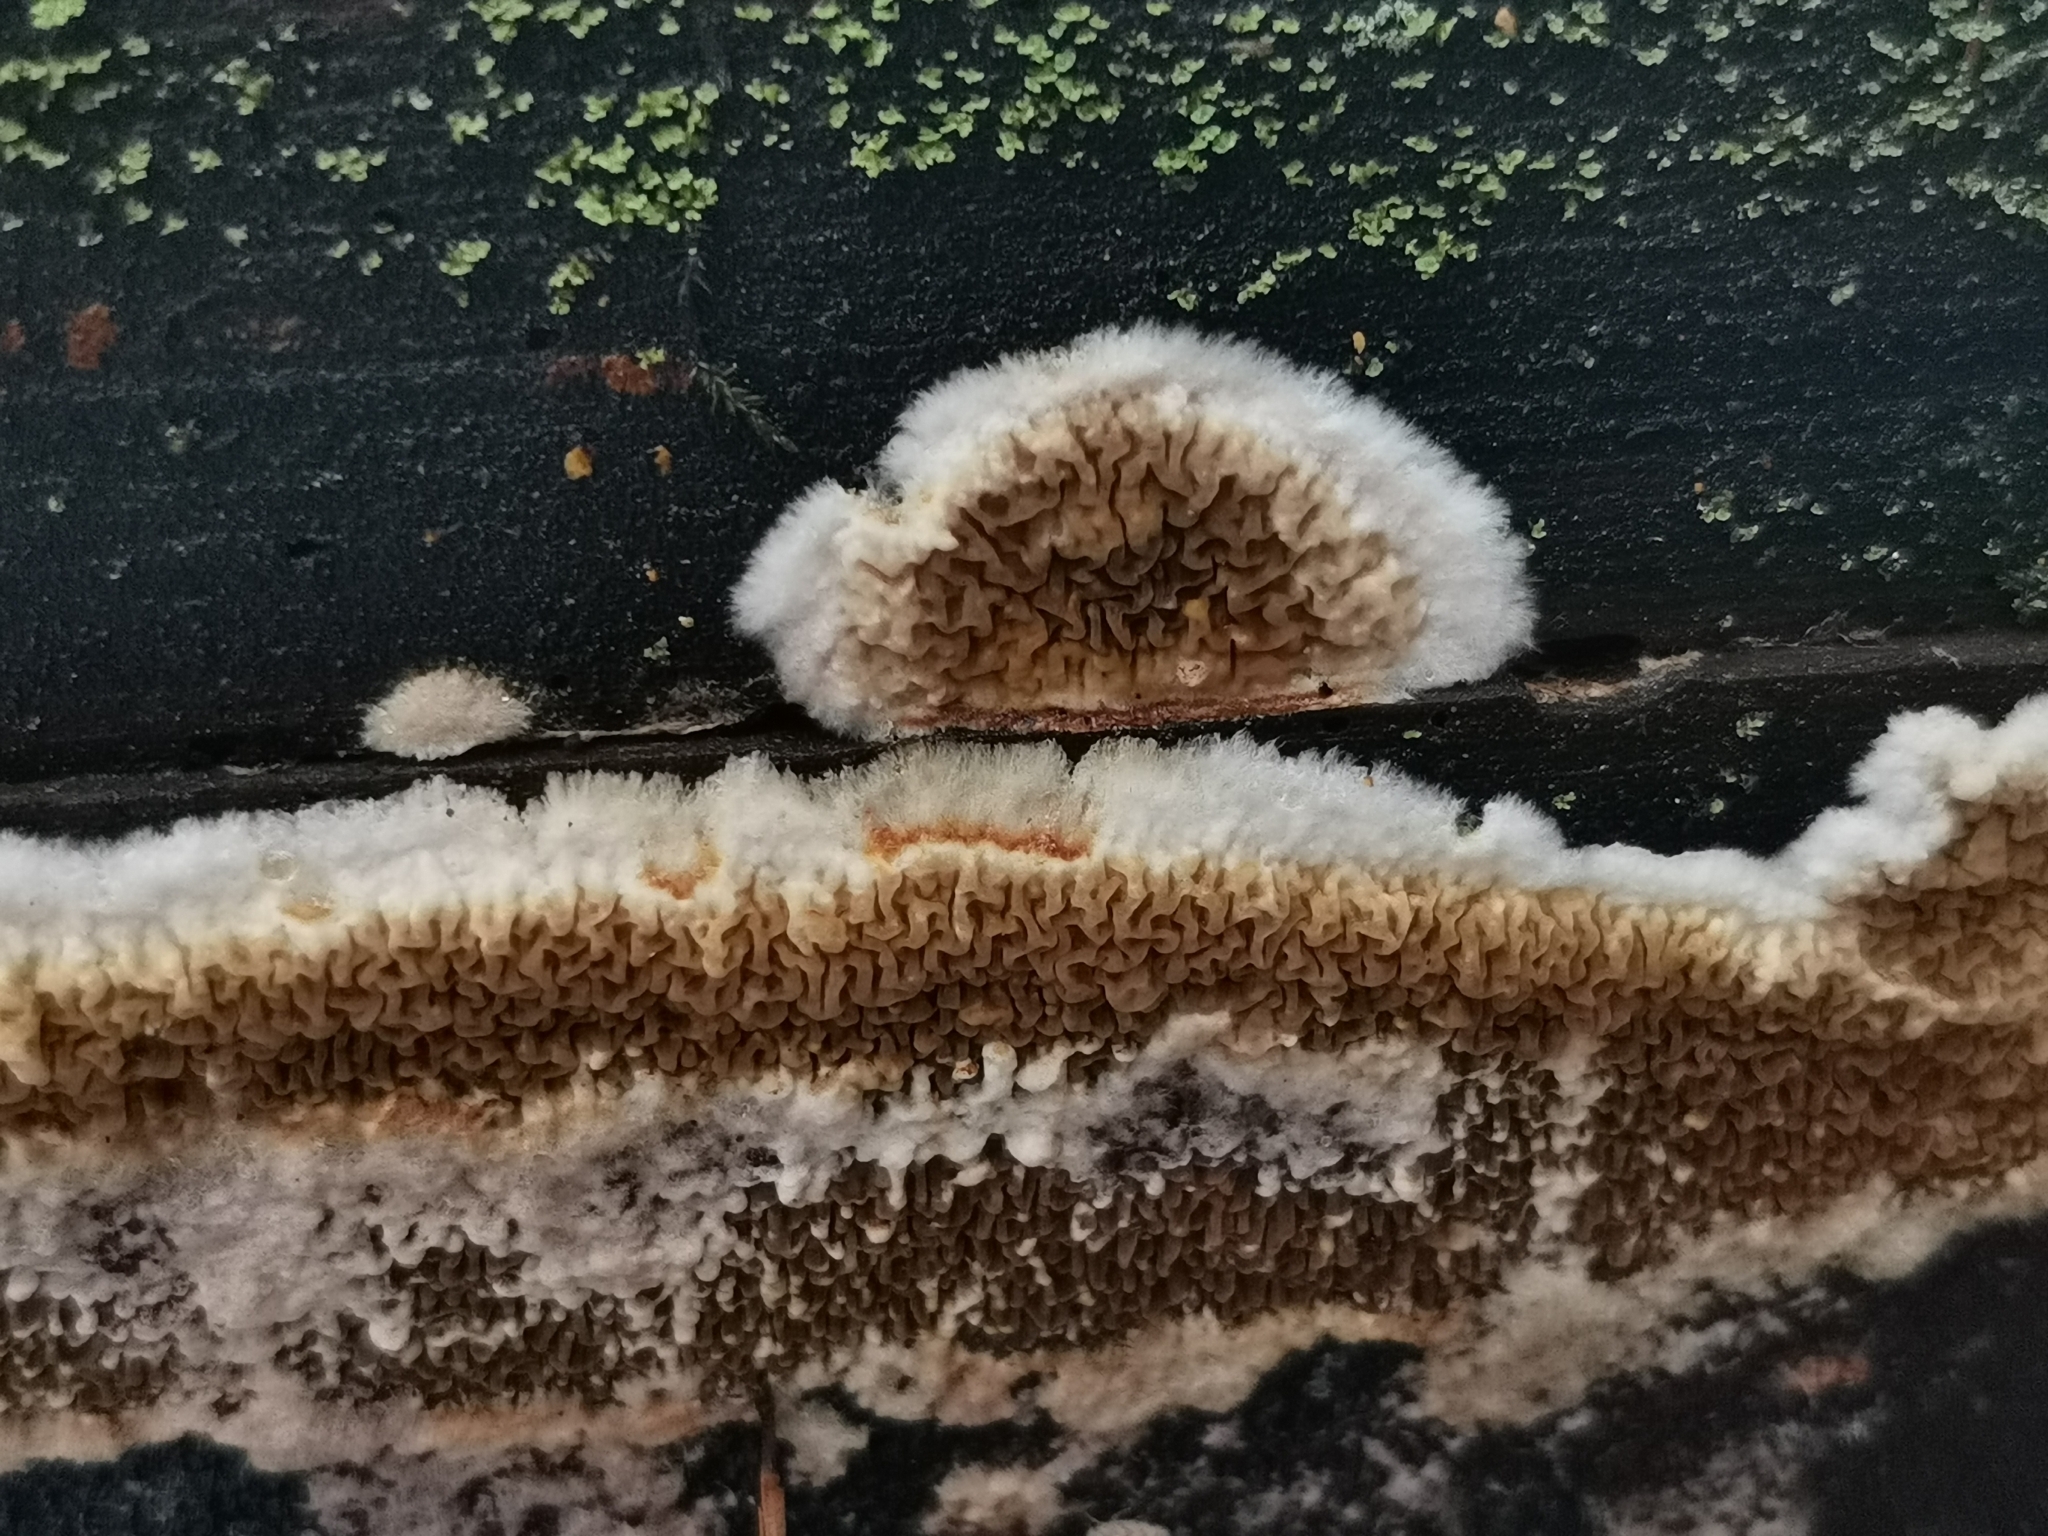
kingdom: Fungi
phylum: Basidiomycota
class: Agaricomycetes
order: Boletales
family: Serpulaceae
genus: Serpula
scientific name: Serpula himantioides
